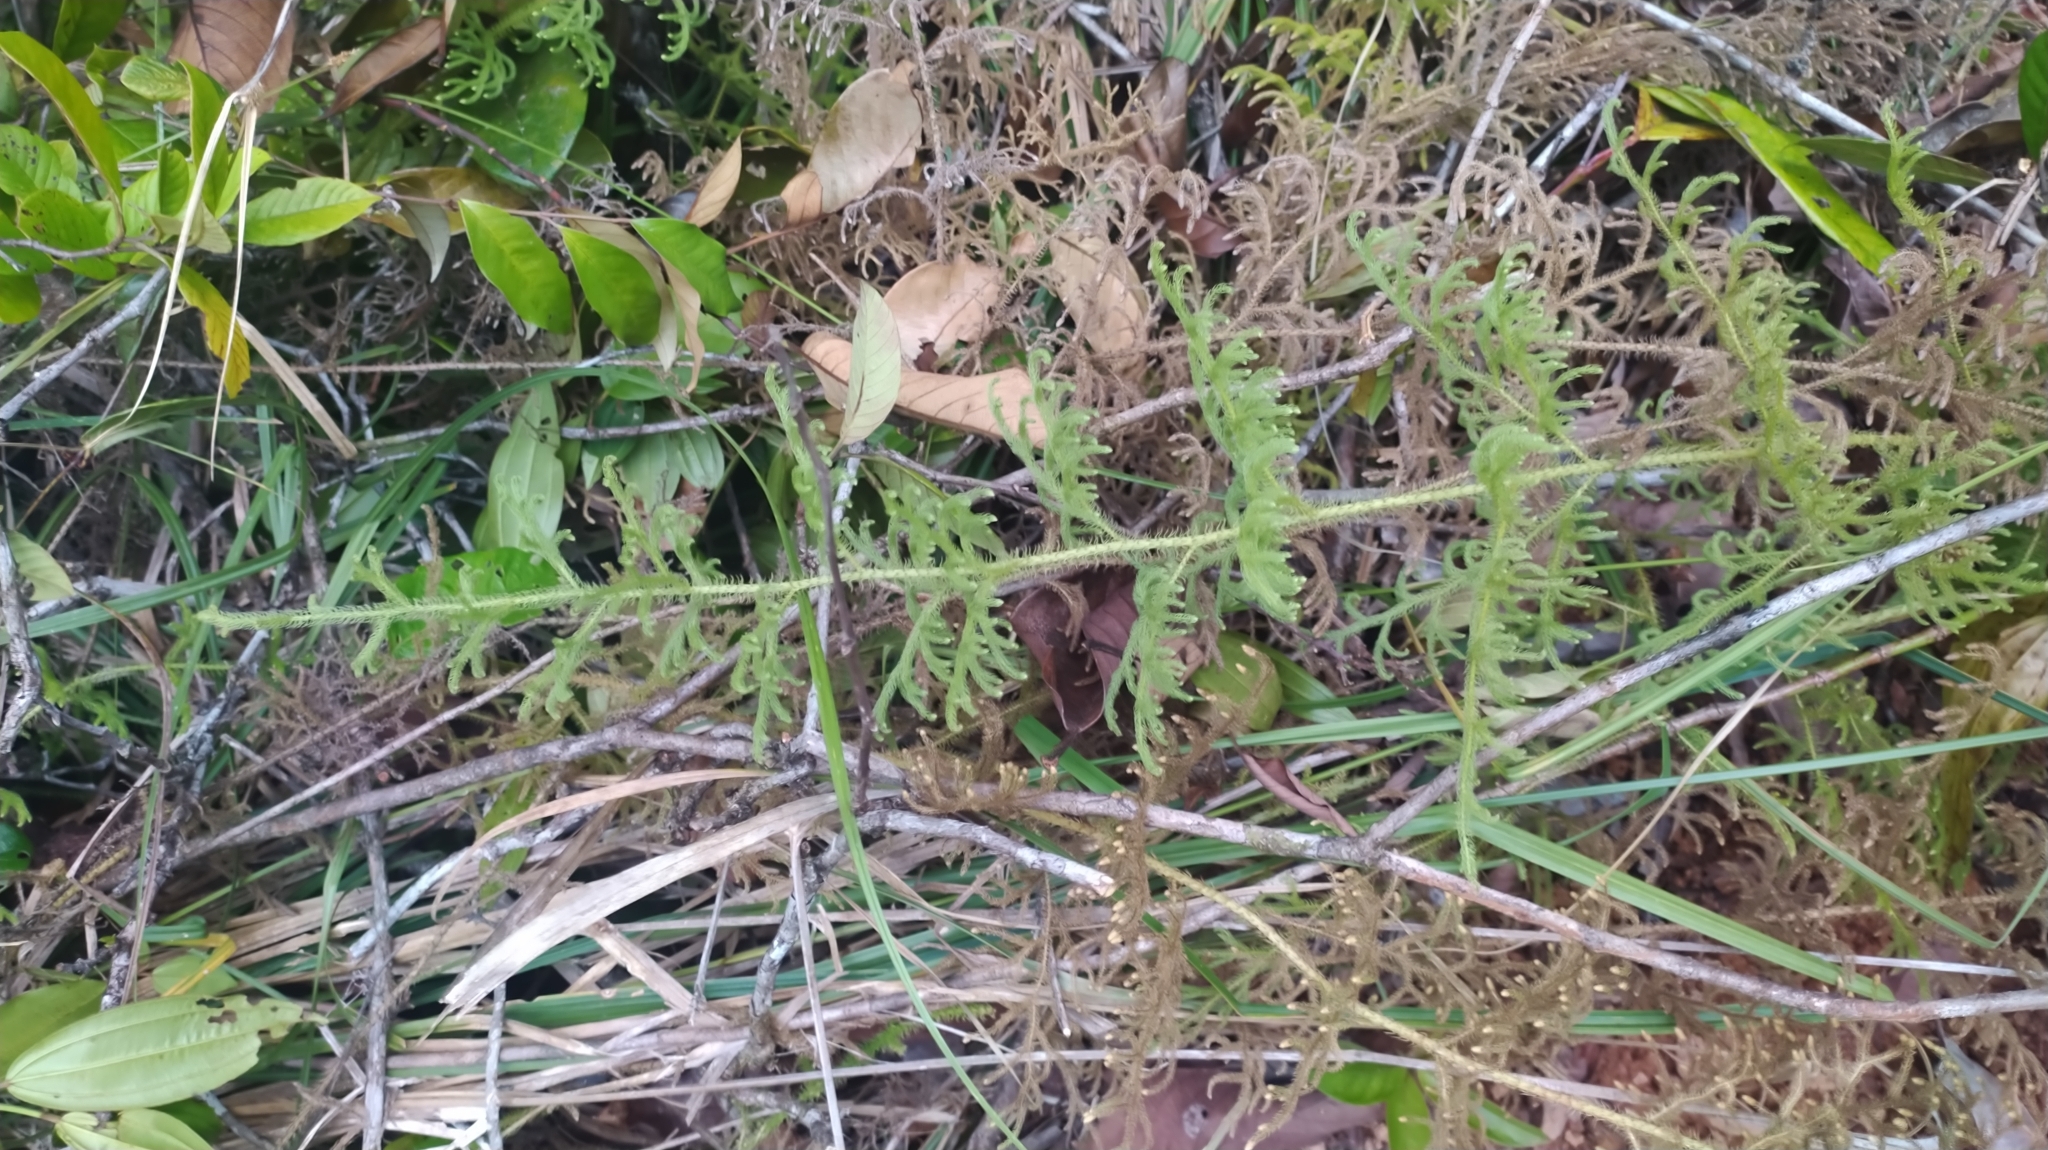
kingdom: Plantae
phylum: Tracheophyta
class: Lycopodiopsida
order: Lycopodiales
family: Lycopodiaceae
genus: Palhinhaea
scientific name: Palhinhaea cernua
